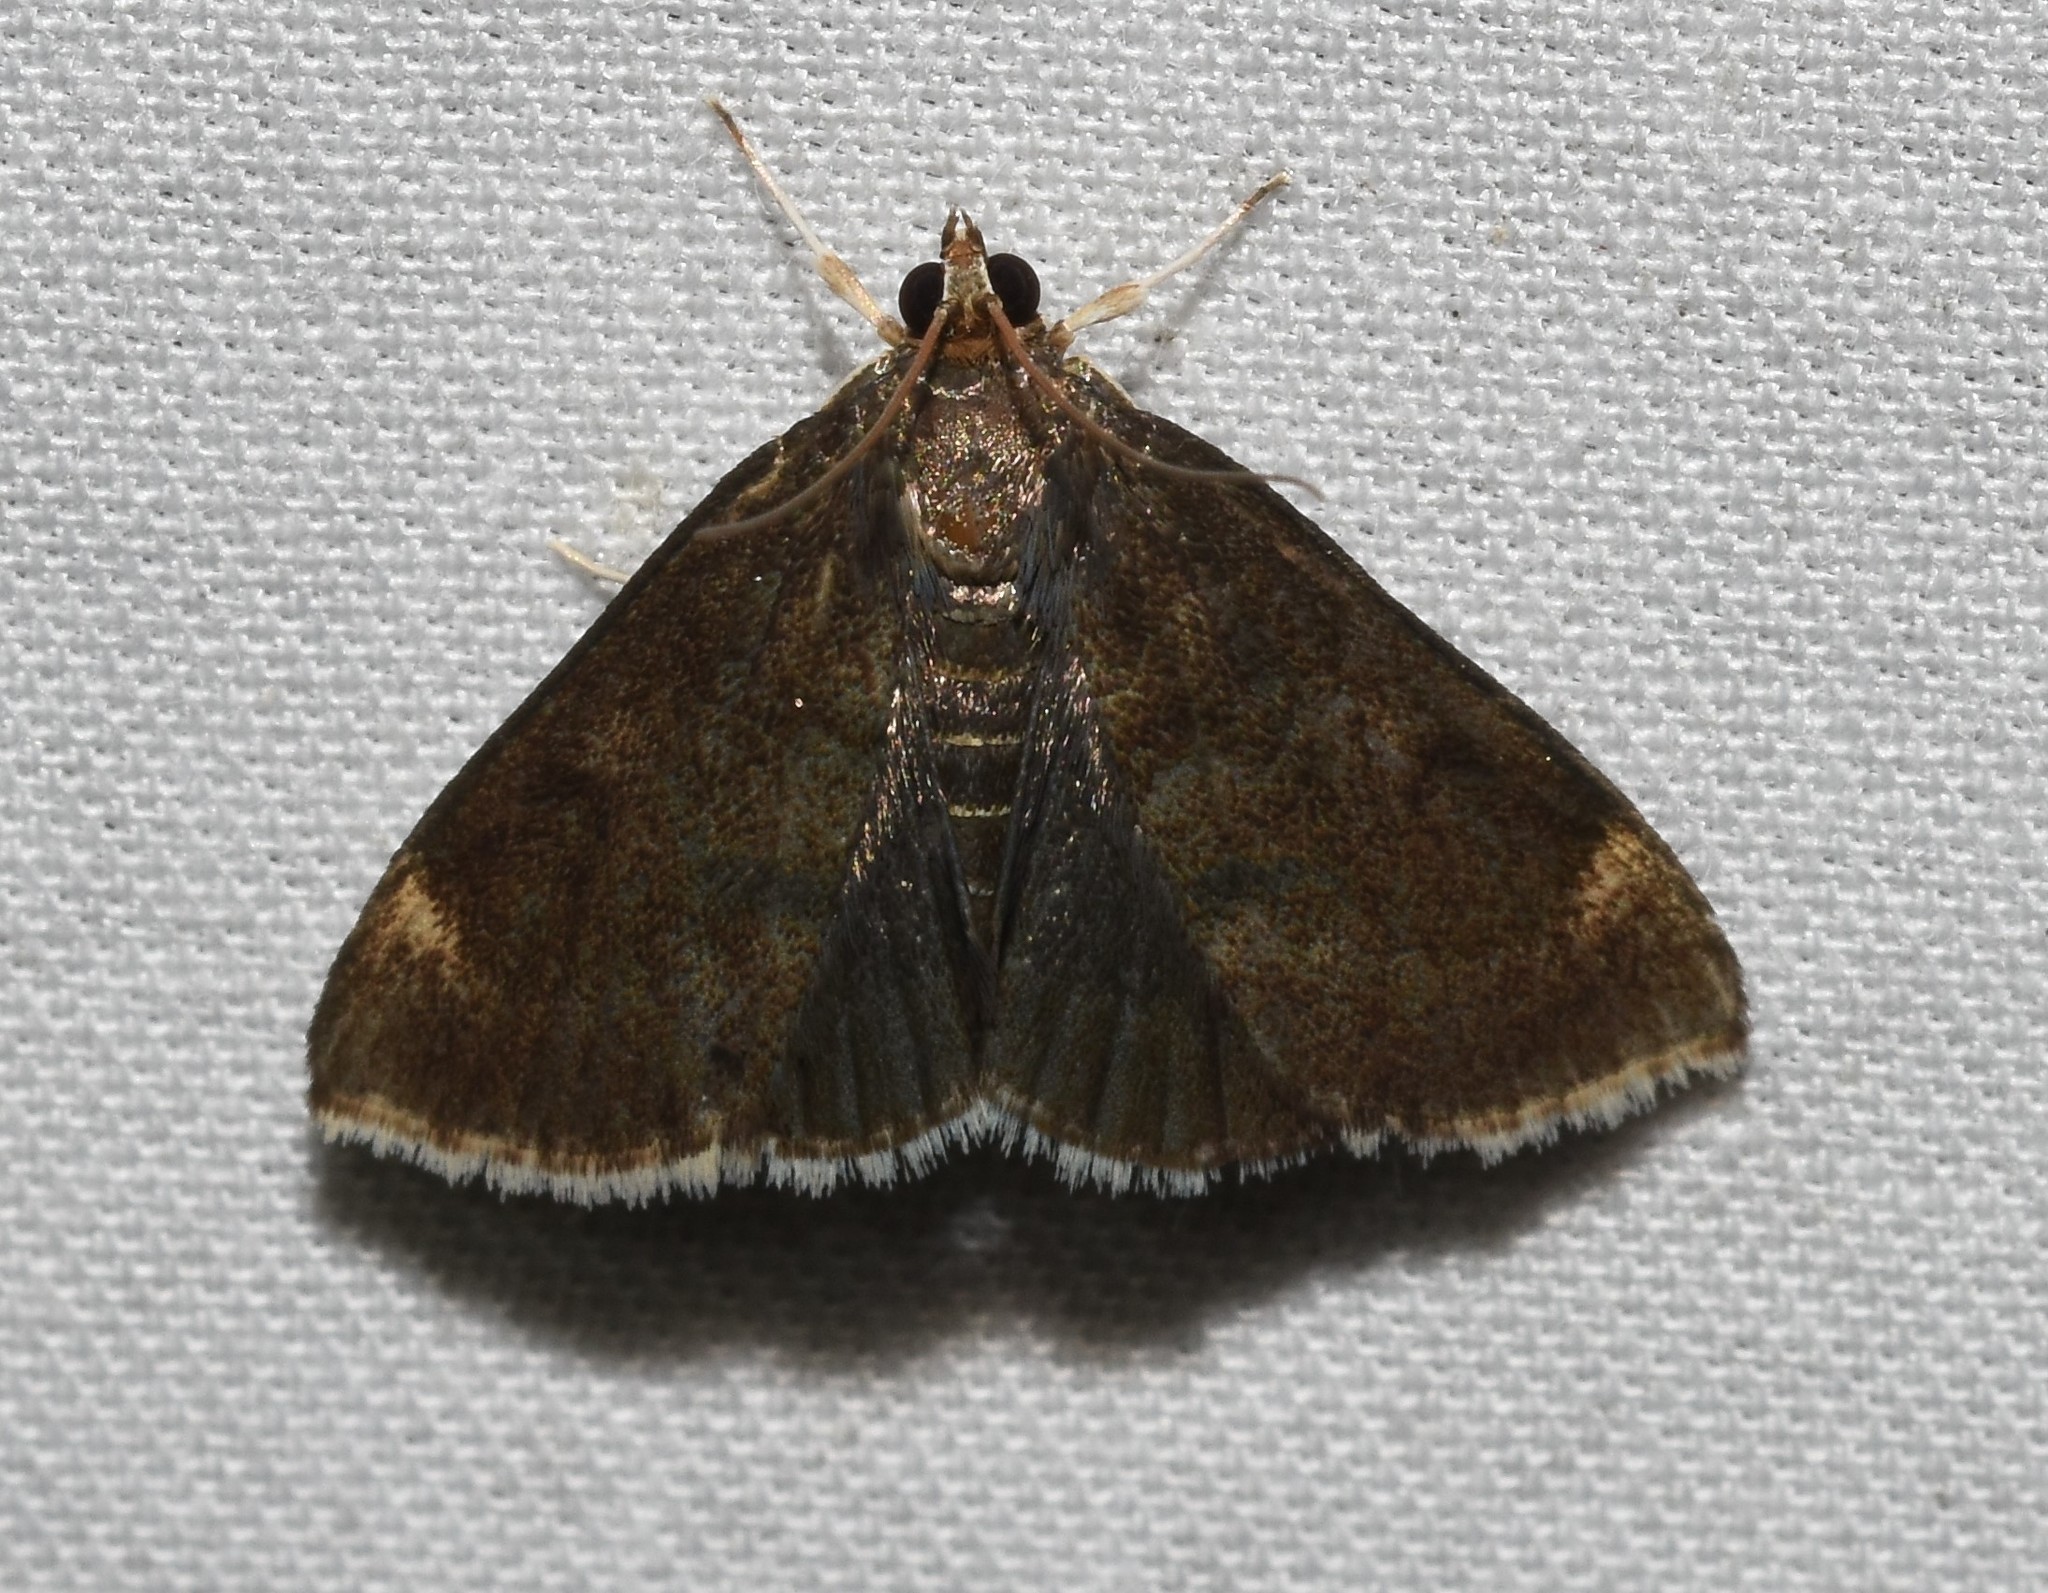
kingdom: Animalia
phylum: Arthropoda
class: Insecta
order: Lepidoptera
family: Crambidae
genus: Pyrausta
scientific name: Pyrausta niveicilialis
